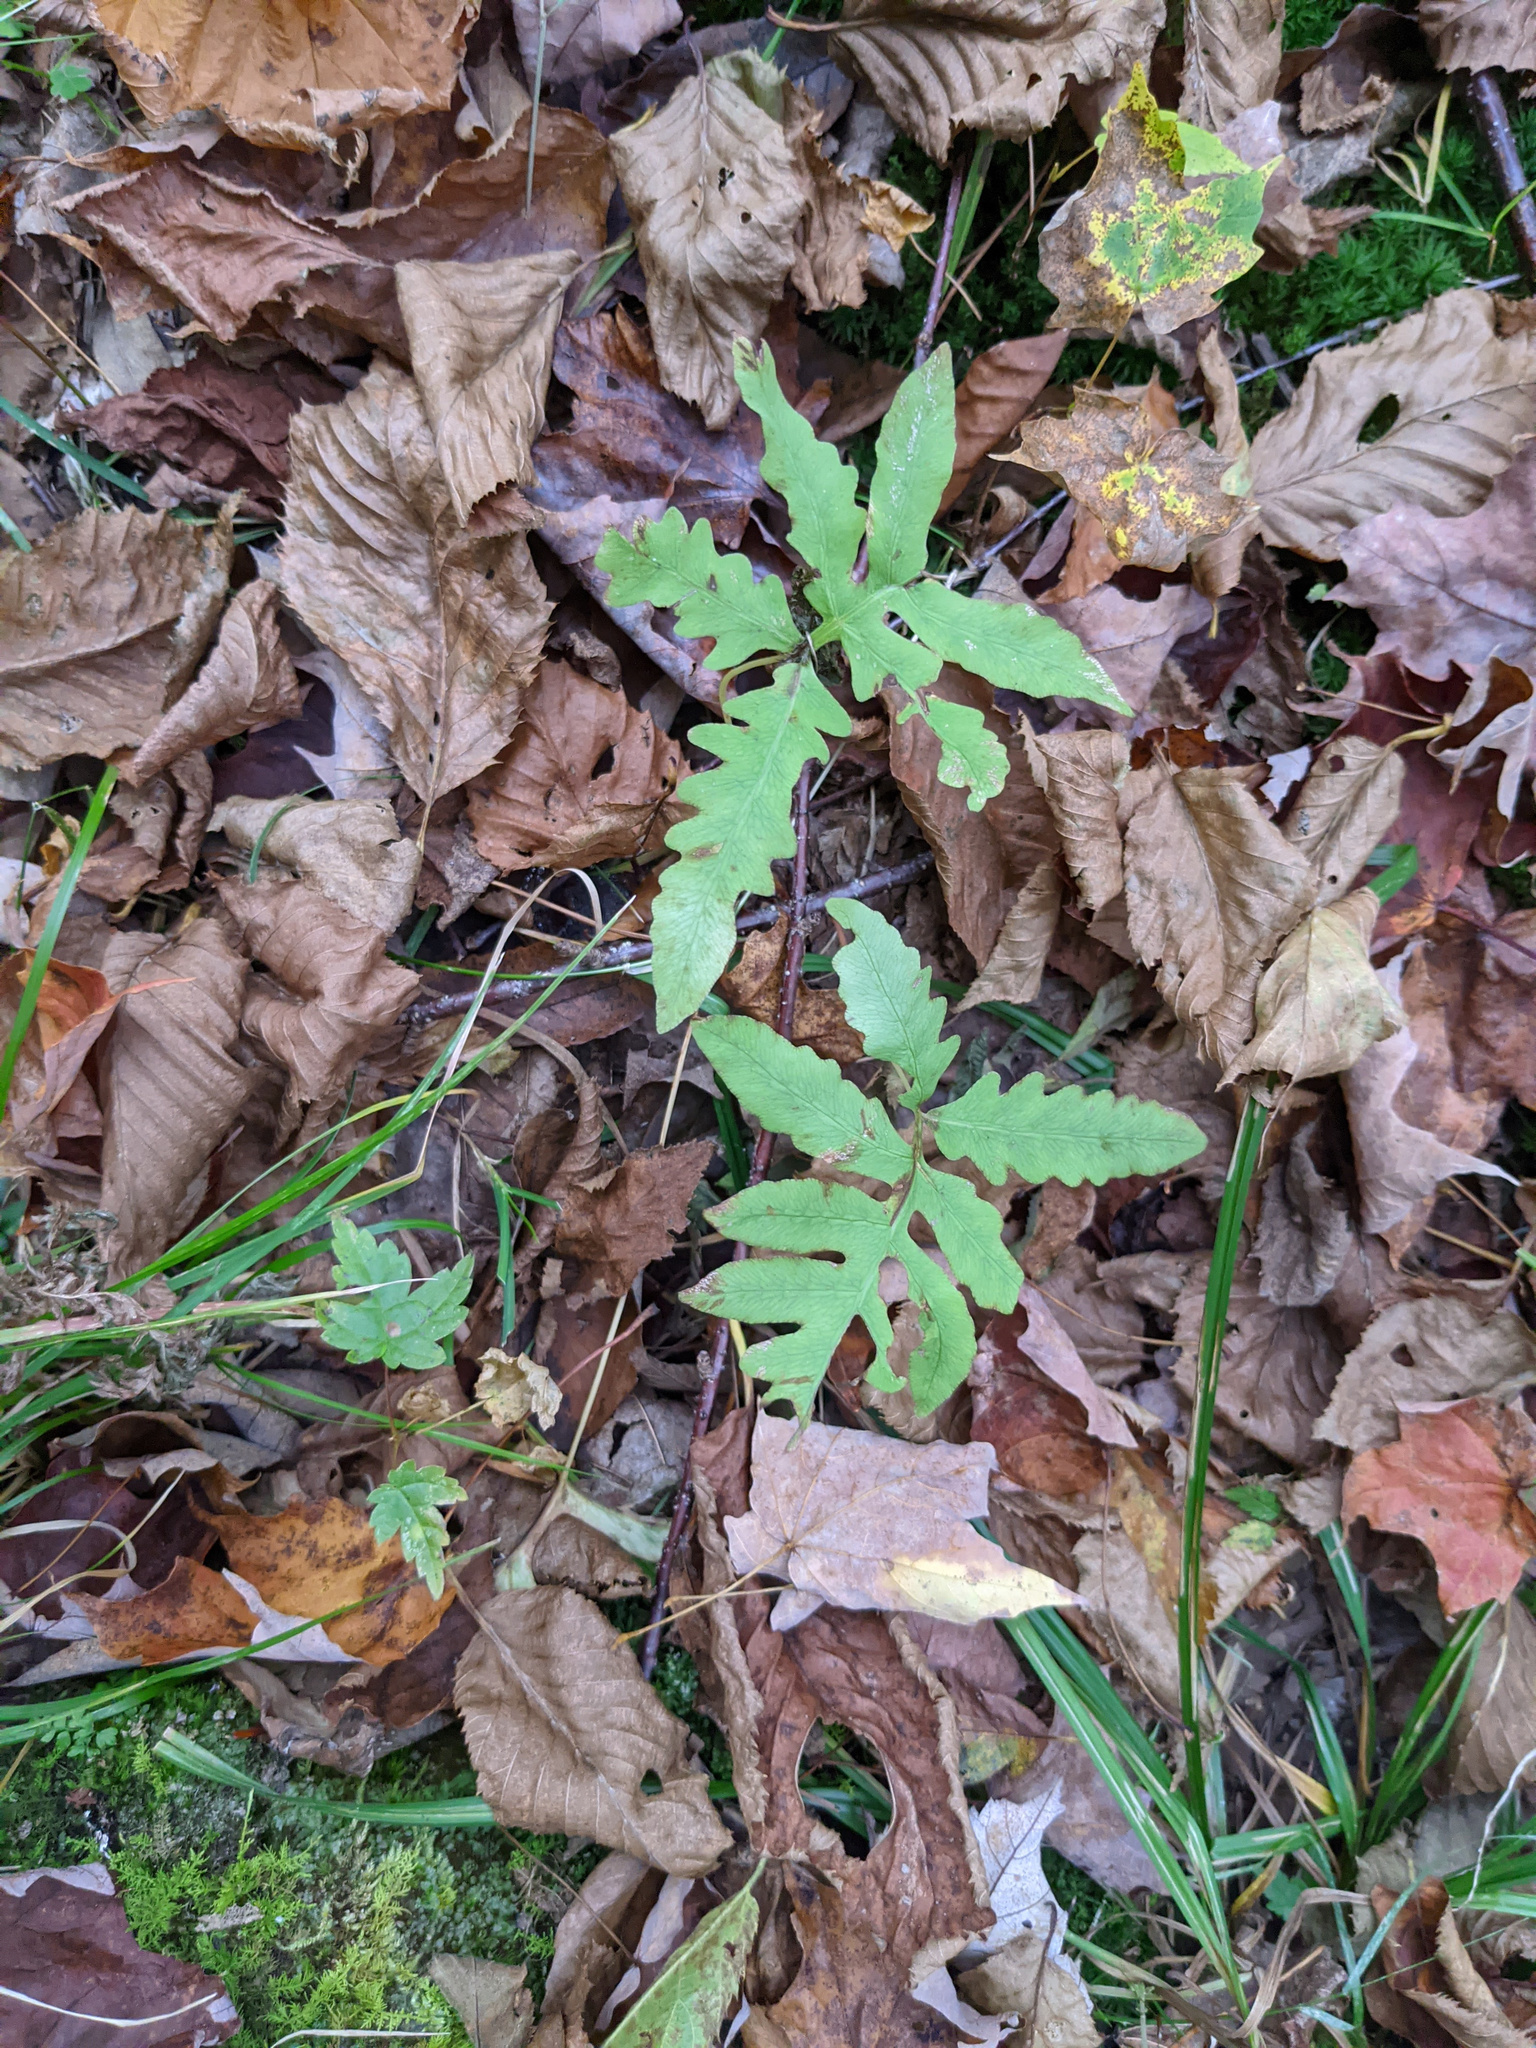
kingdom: Plantae
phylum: Tracheophyta
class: Polypodiopsida
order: Polypodiales
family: Onocleaceae
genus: Onoclea
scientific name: Onoclea sensibilis
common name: Sensitive fern
